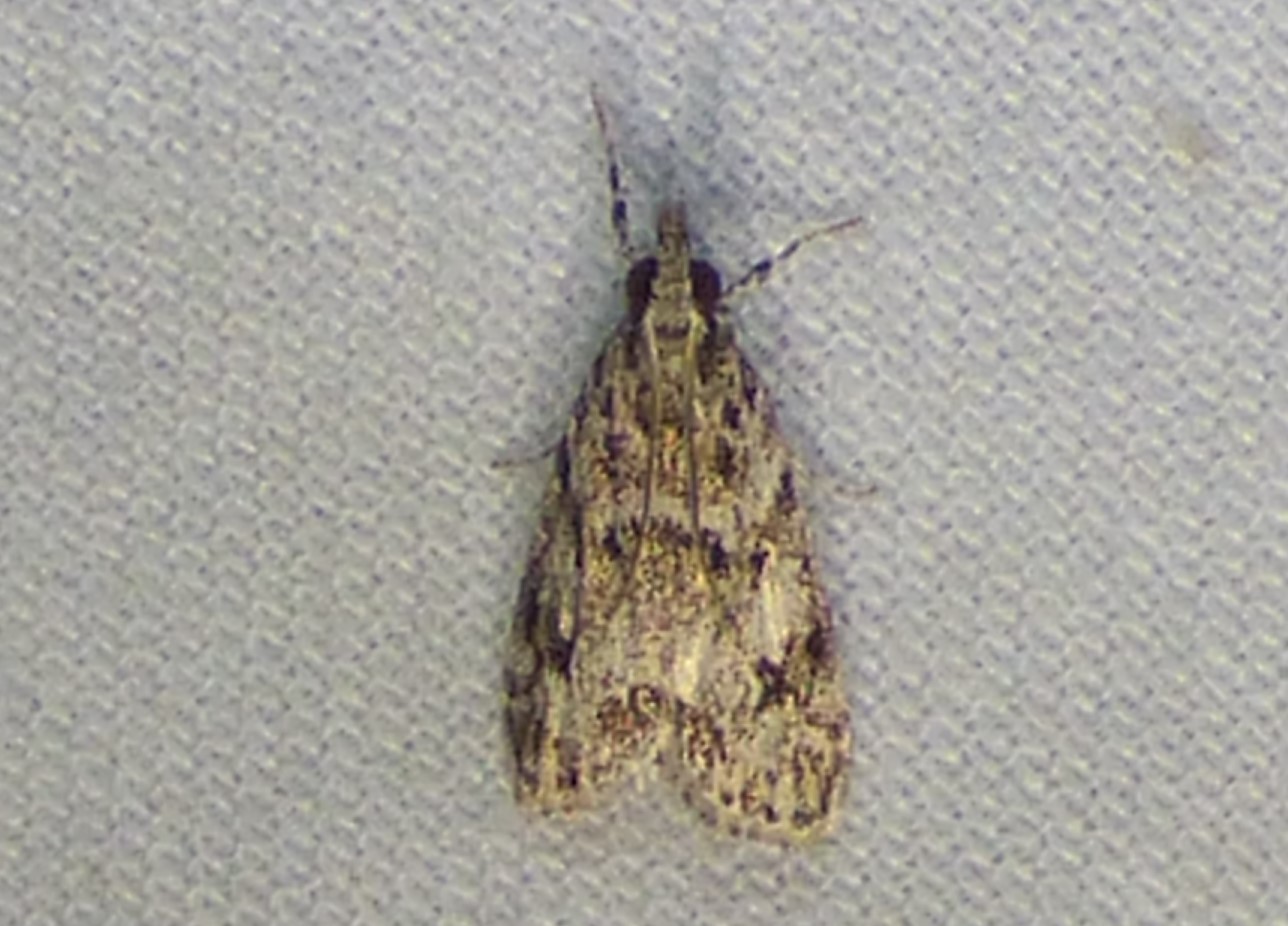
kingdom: Animalia
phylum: Arthropoda
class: Insecta
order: Lepidoptera
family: Crambidae
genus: Eudonia
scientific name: Eudonia heterosalis
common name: Mcdunnough's eudonia
